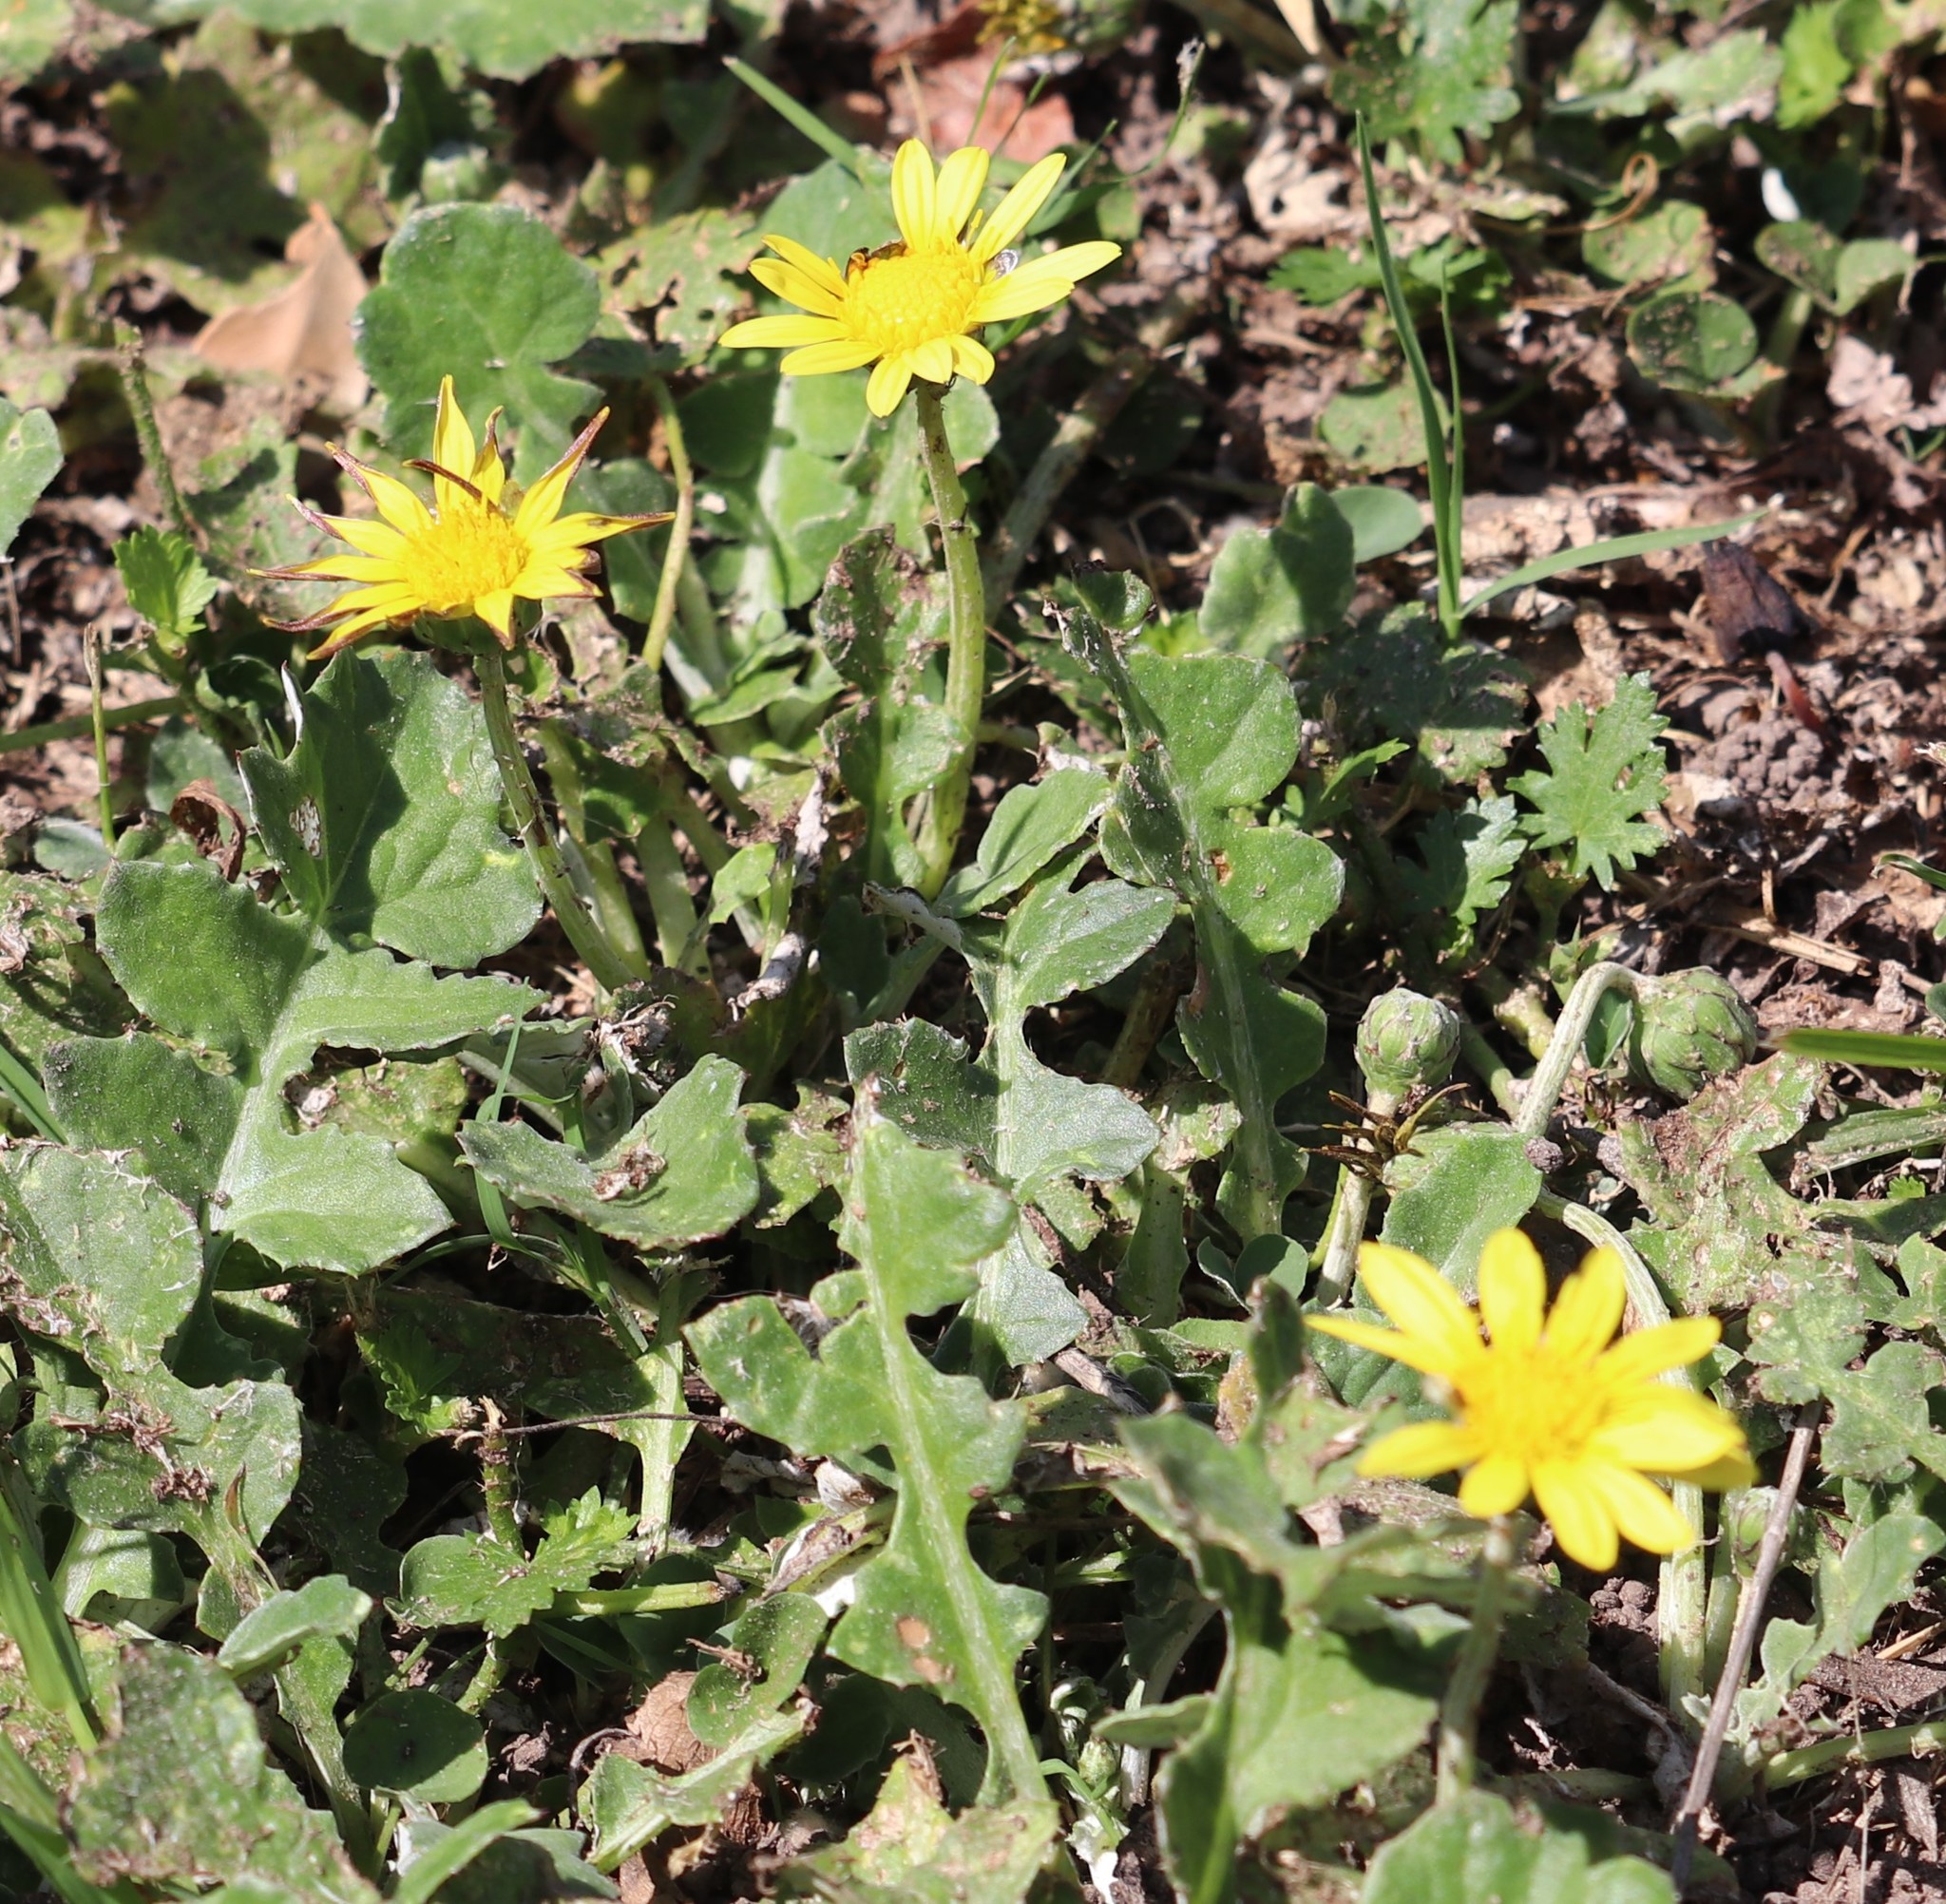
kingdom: Plantae
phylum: Tracheophyta
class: Magnoliopsida
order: Asterales
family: Asteraceae
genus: Arctotheca
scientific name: Arctotheca prostrata
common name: Capeweed
